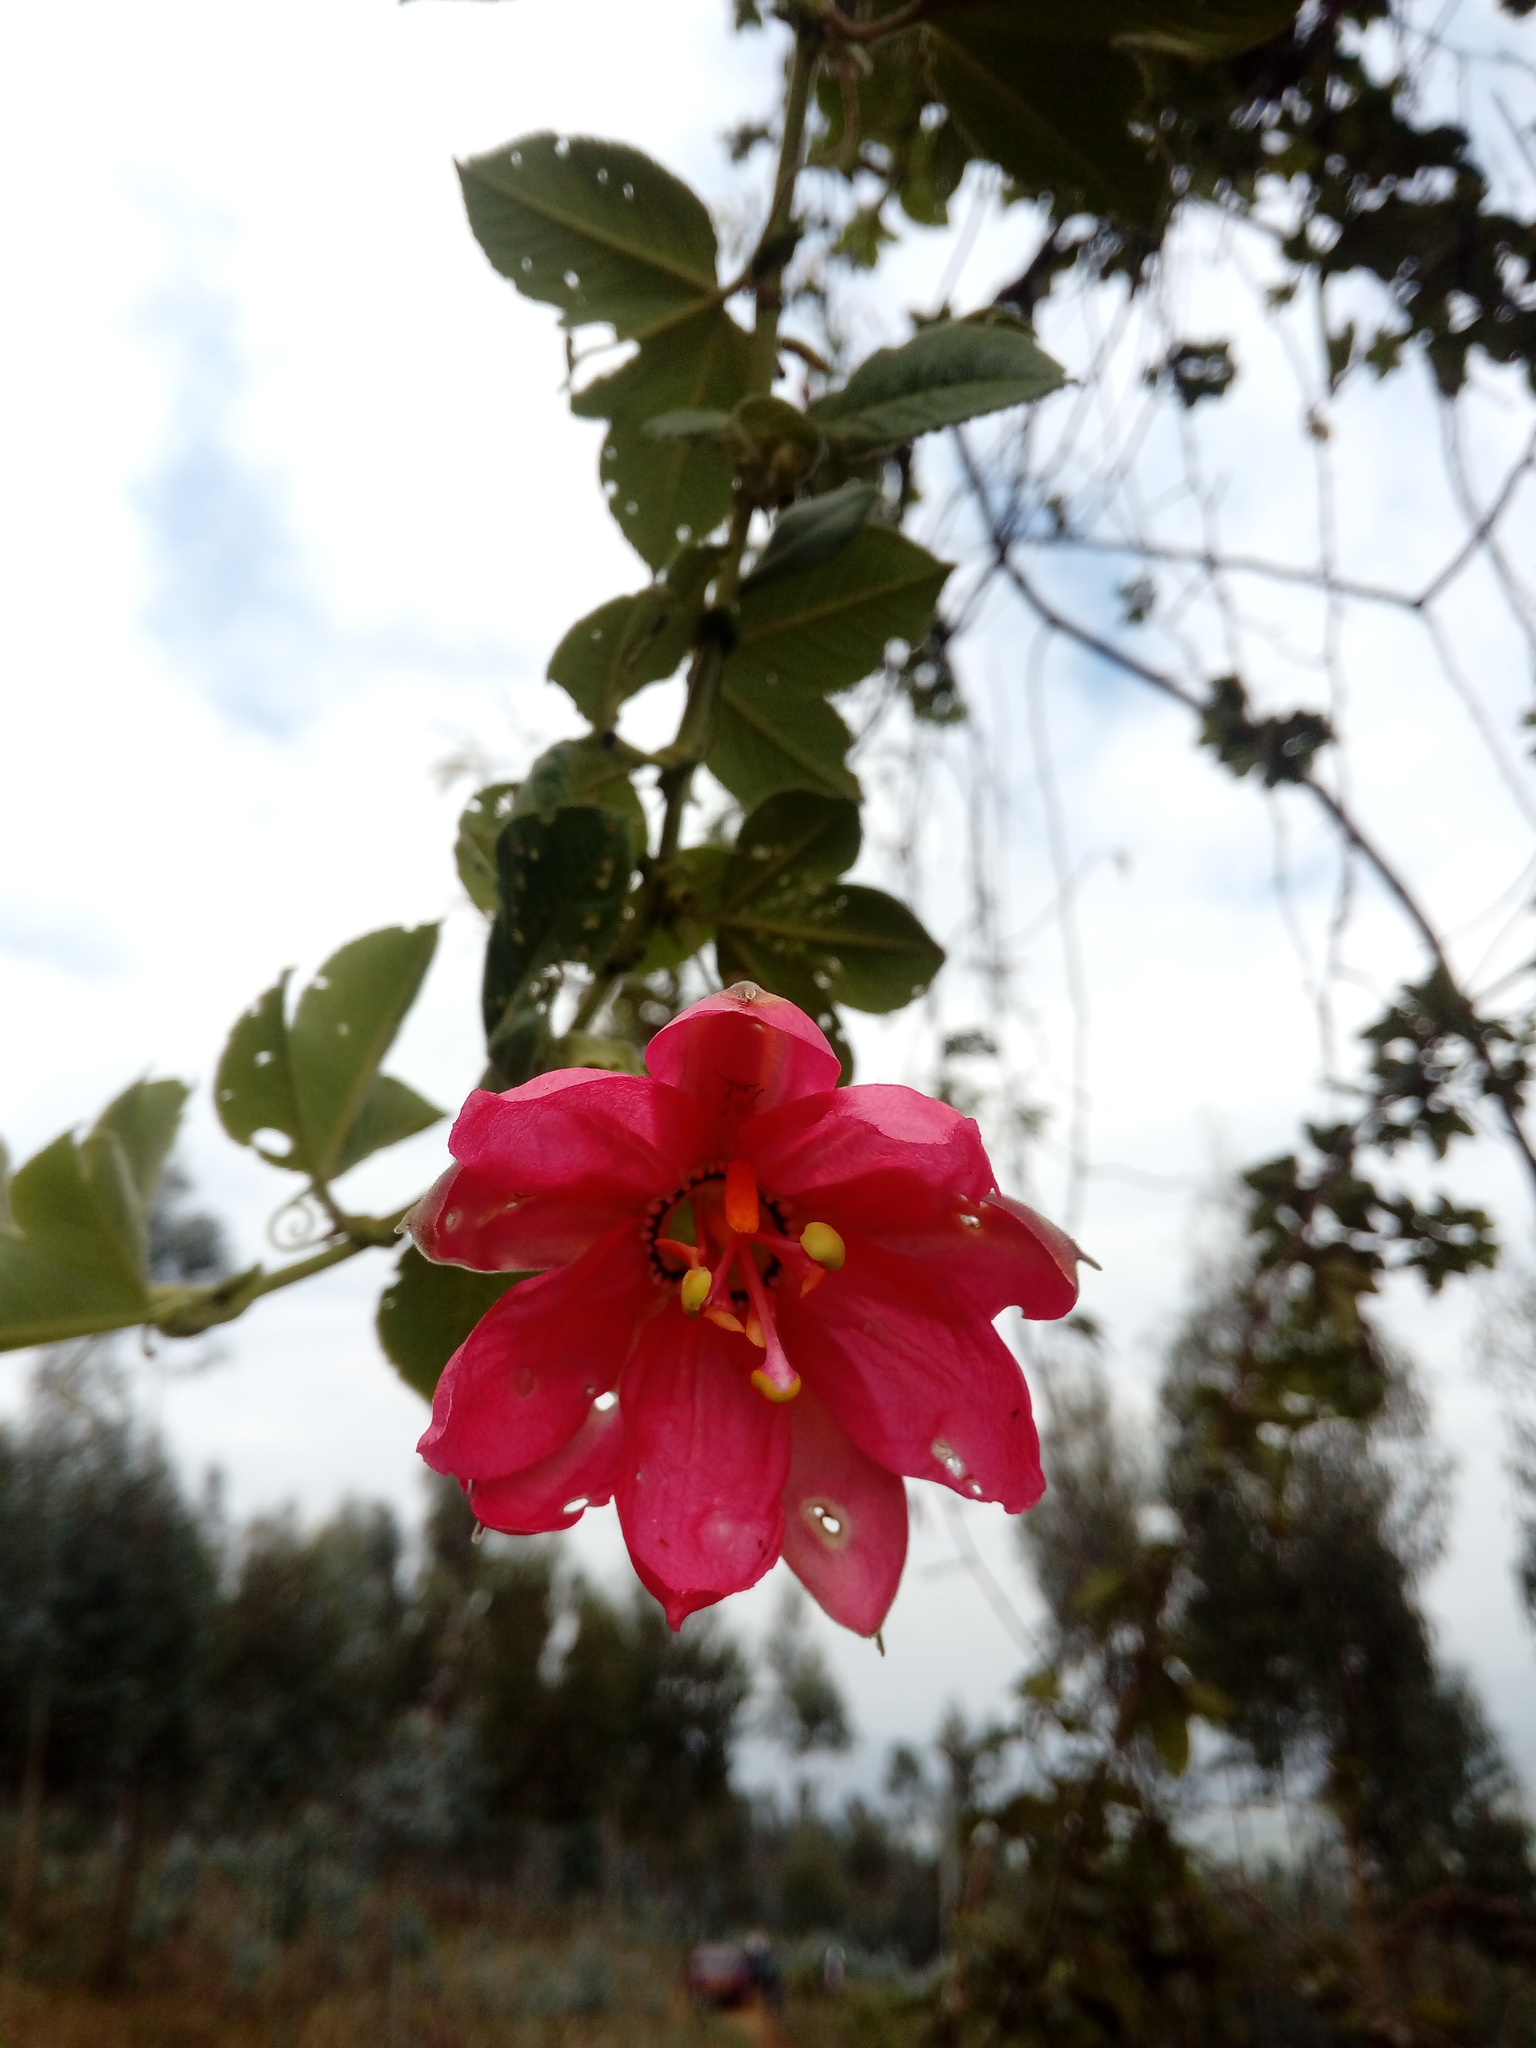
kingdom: Plantae
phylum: Tracheophyta
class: Magnoliopsida
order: Malpighiales
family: Passifloraceae
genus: Passiflora
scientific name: Passiflora mixta
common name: Passion flower
